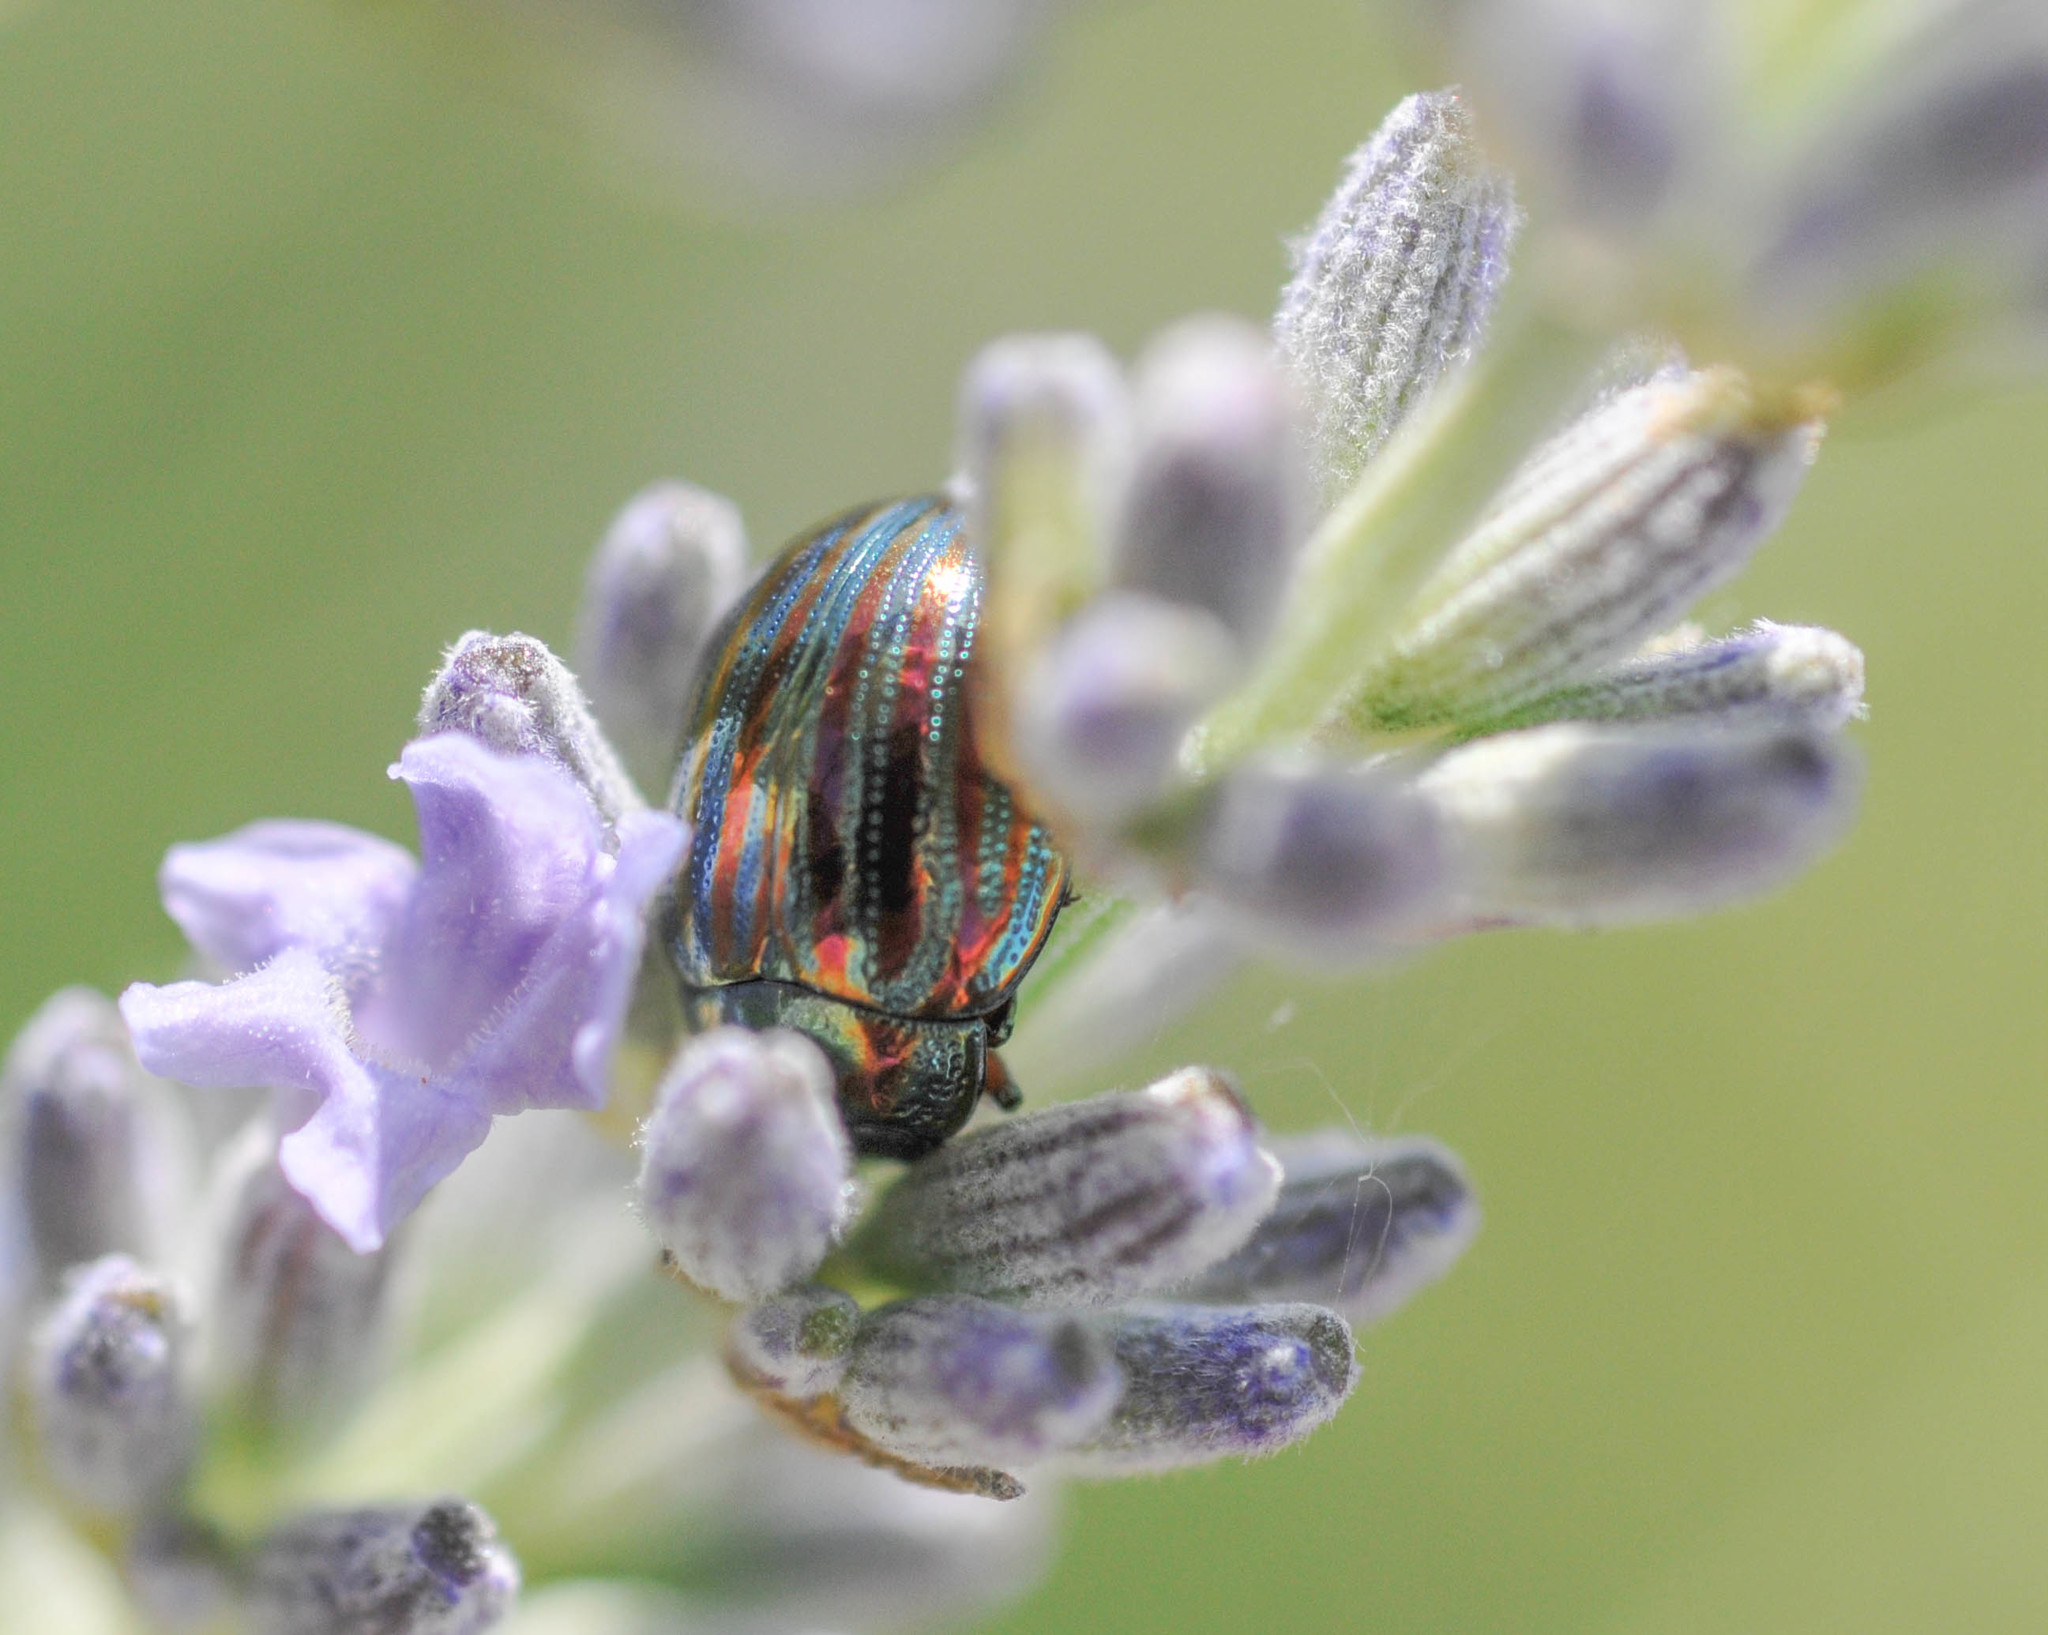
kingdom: Animalia
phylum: Arthropoda
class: Insecta
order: Coleoptera
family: Chrysomelidae
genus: Chrysolina
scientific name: Chrysolina americana
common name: Rosemary beetle
